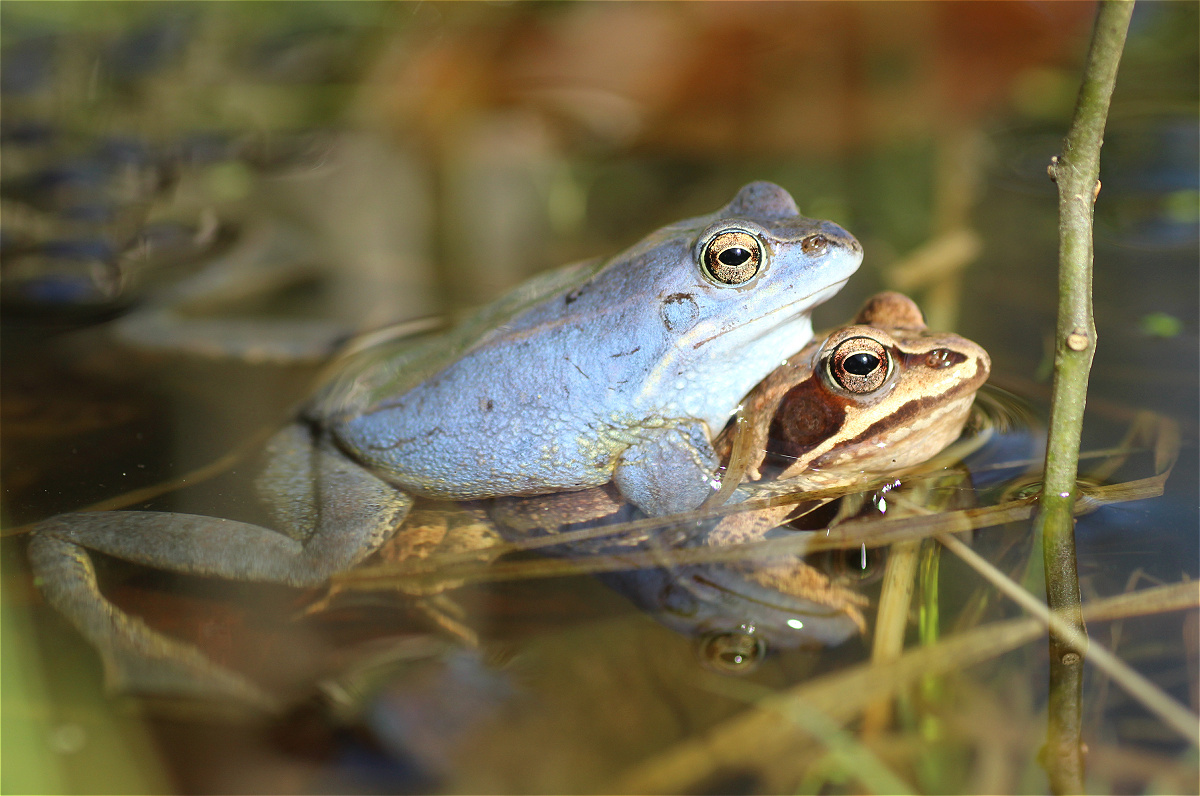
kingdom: Animalia
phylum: Chordata
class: Amphibia
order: Anura
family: Ranidae
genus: Rana
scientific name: Rana arvalis
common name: Moor frog
